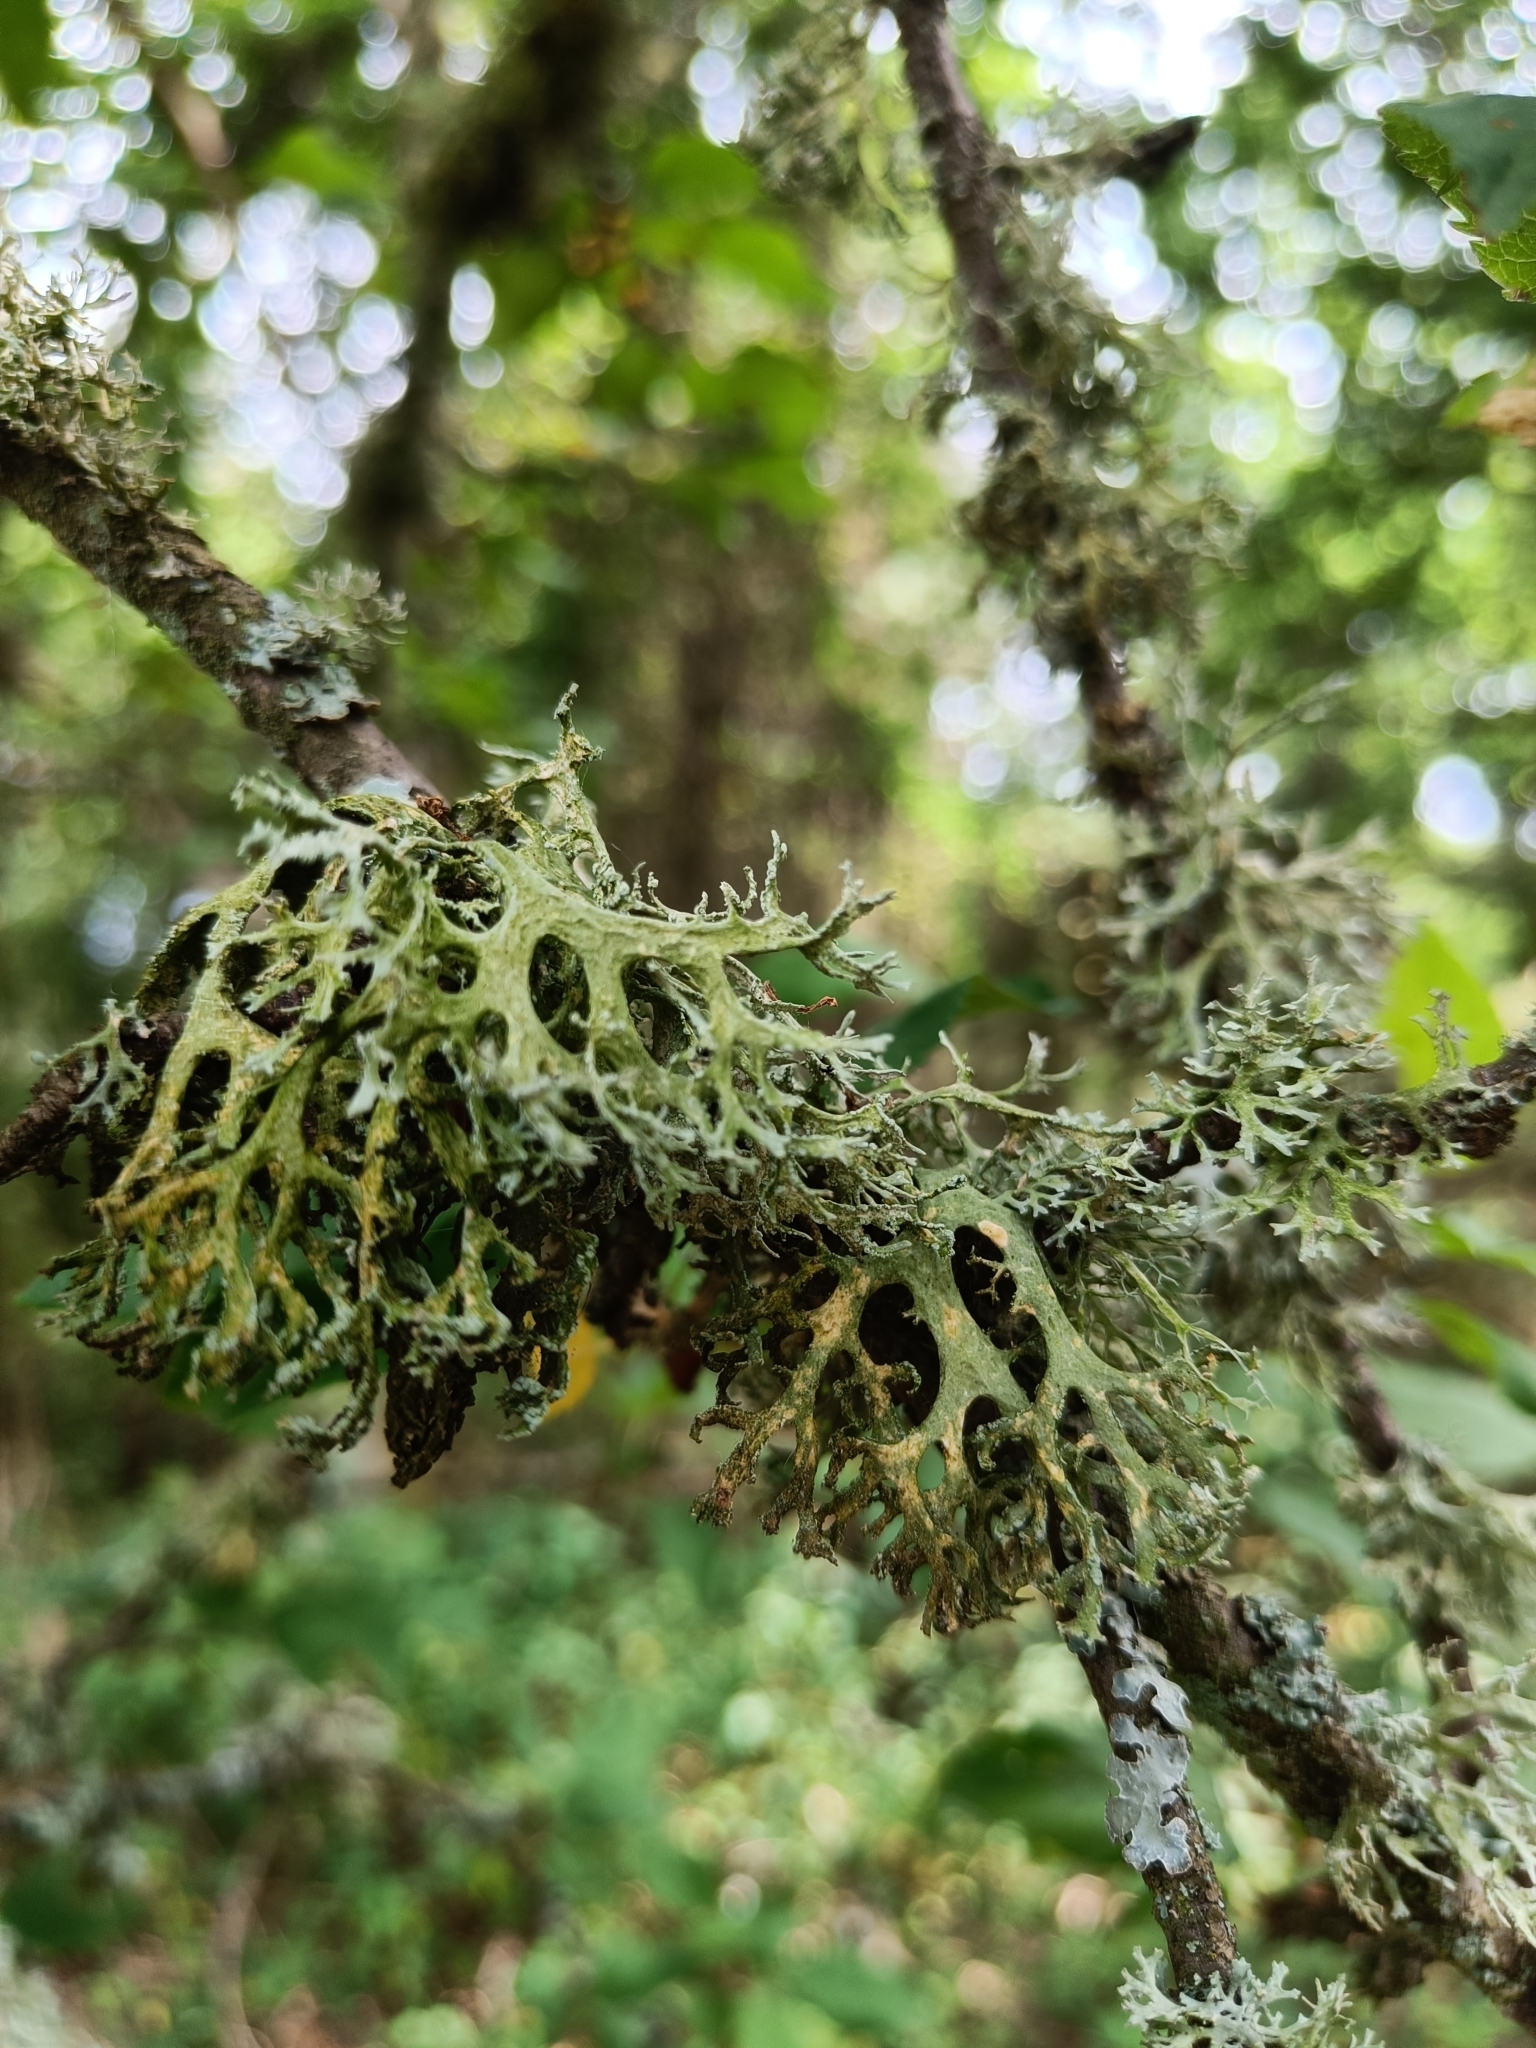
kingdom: Fungi
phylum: Ascomycota
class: Lecanoromycetes
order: Lecanorales
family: Parmeliaceae
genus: Evernia
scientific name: Evernia prunastri
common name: Oak moss
